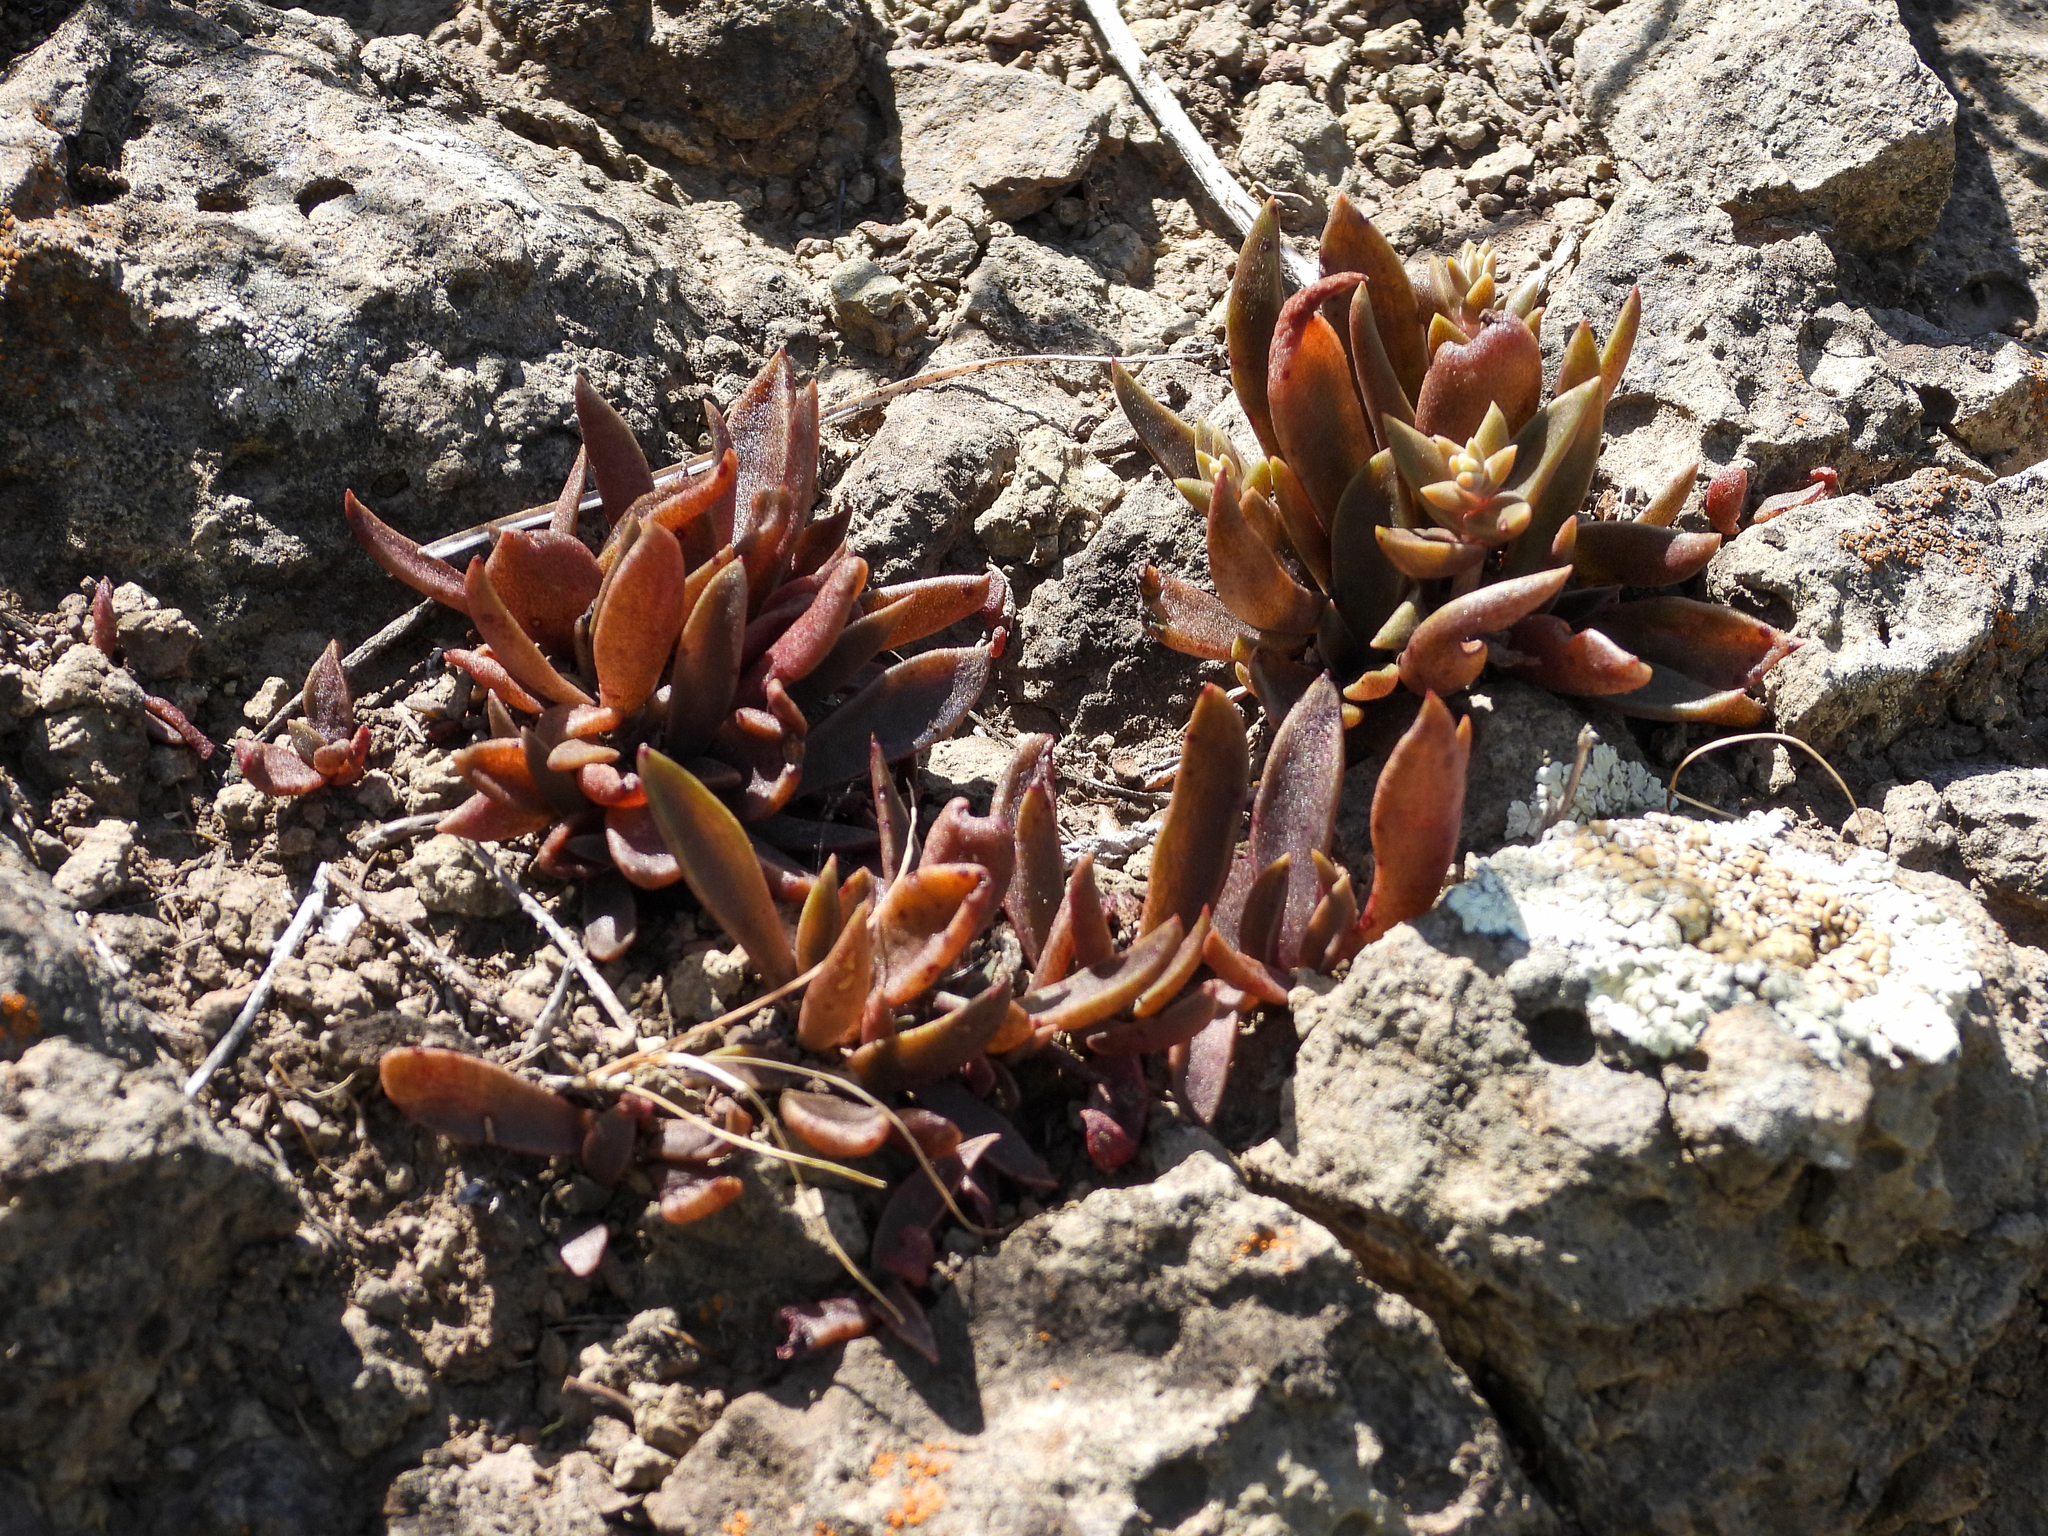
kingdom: Plantae
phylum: Tracheophyta
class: Magnoliopsida
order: Saxifragales
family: Crassulaceae
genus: Dudleya
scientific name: Dudleya parva
